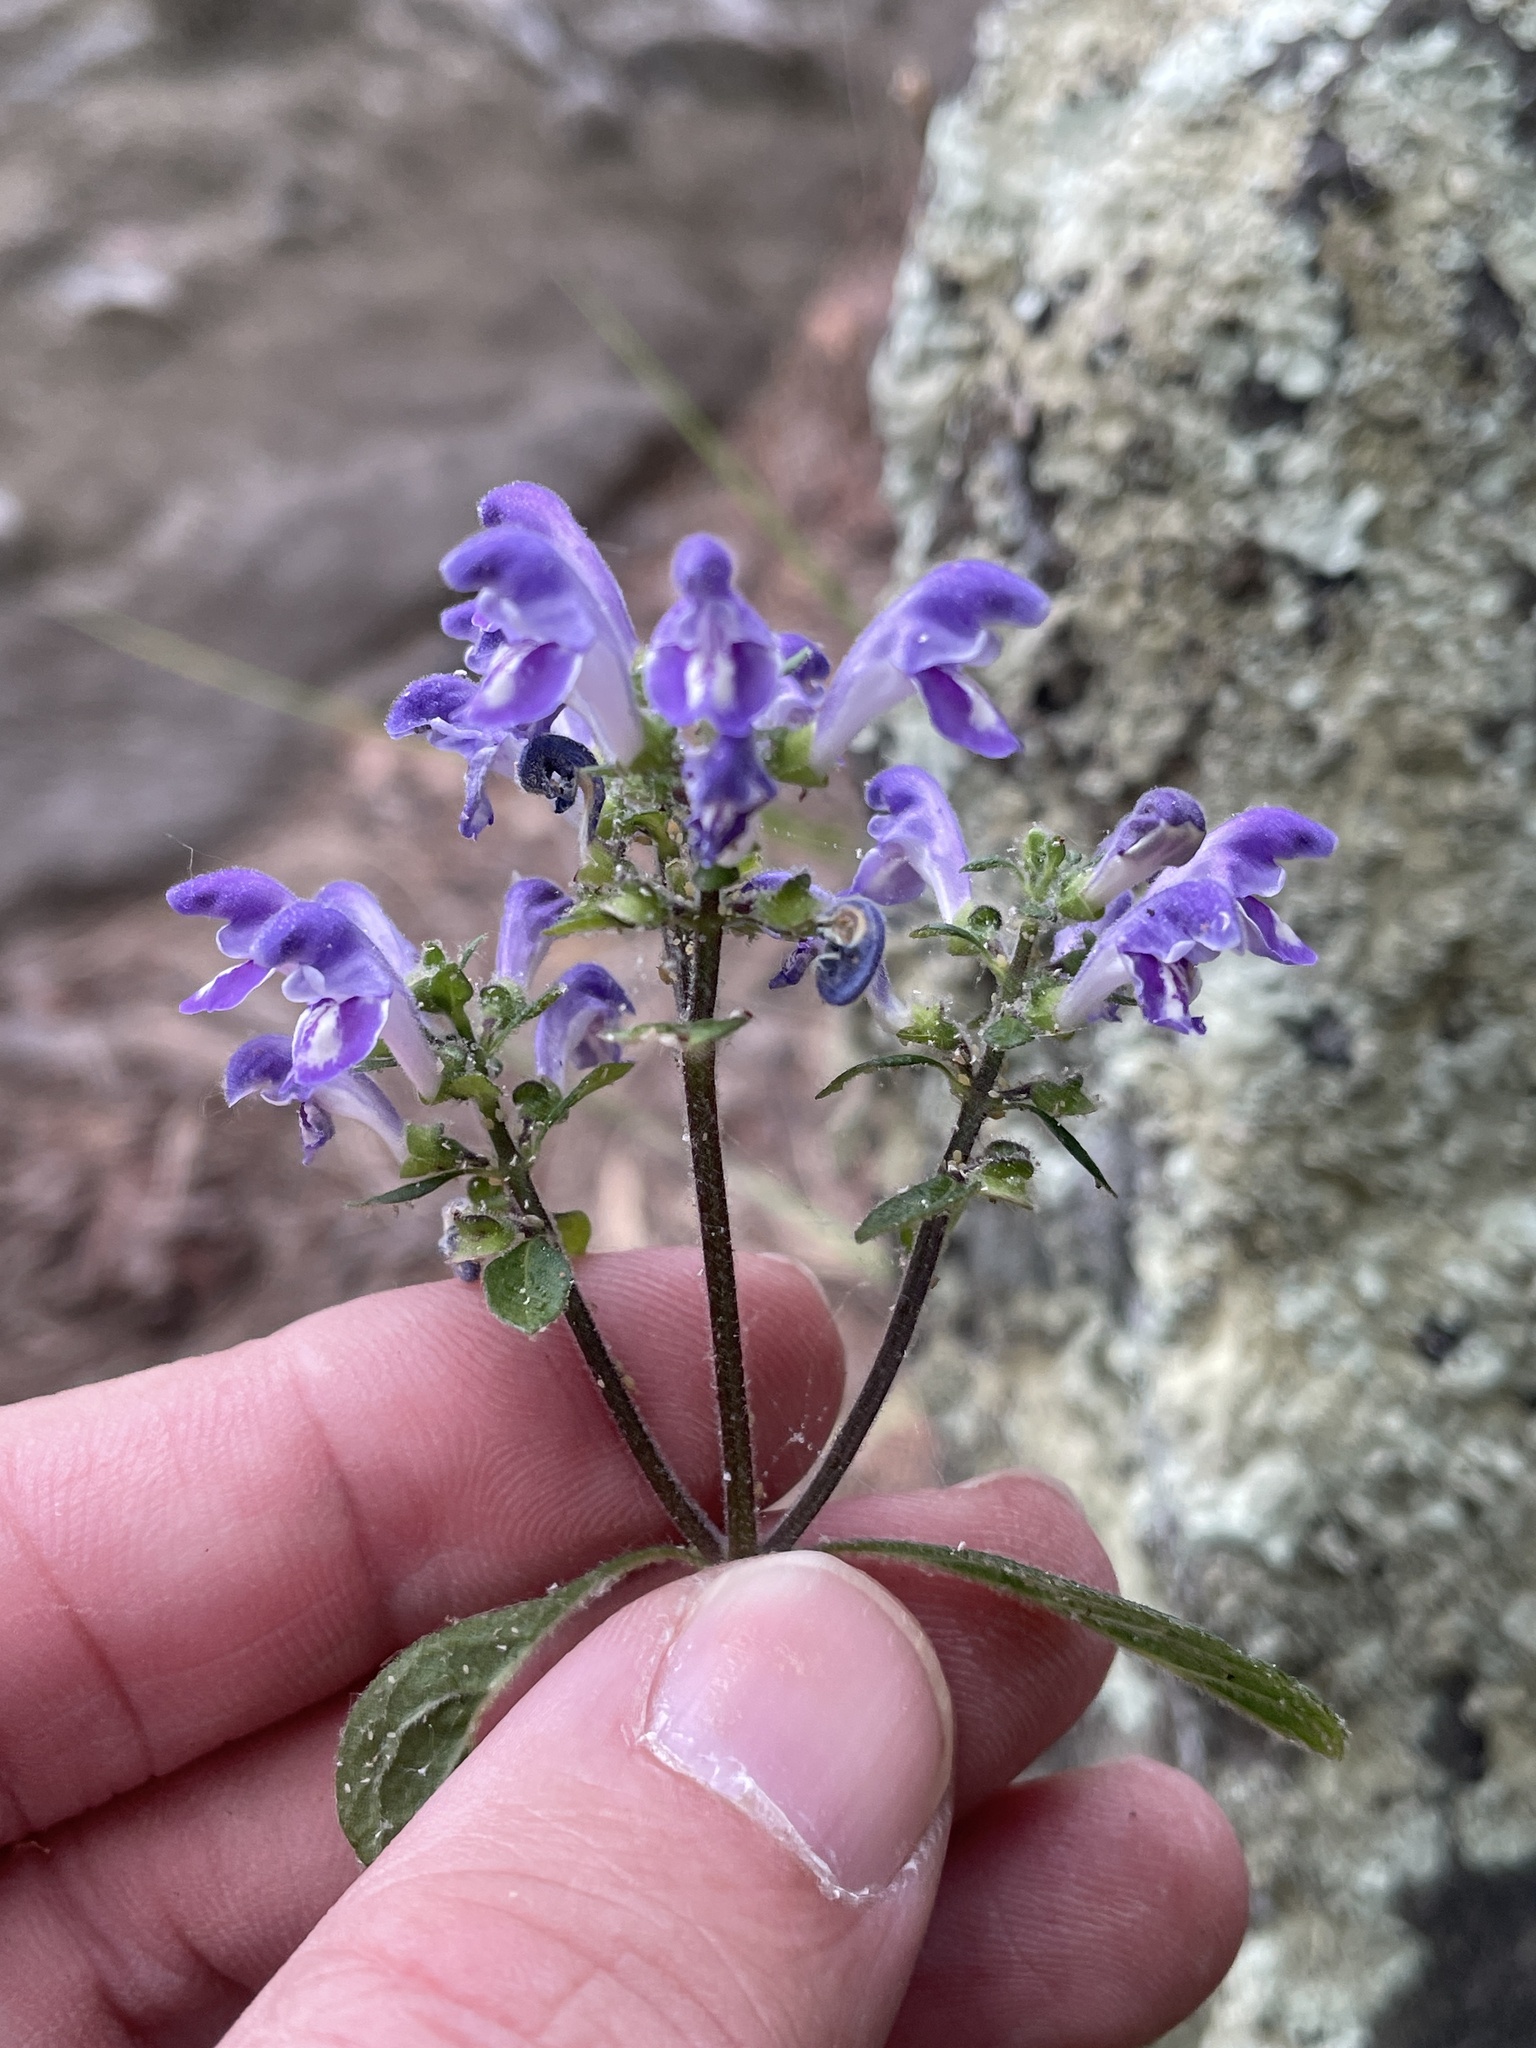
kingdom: Plantae
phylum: Tracheophyta
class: Magnoliopsida
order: Lamiales
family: Lamiaceae
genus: Scutellaria
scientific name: Scutellaria elliptica
